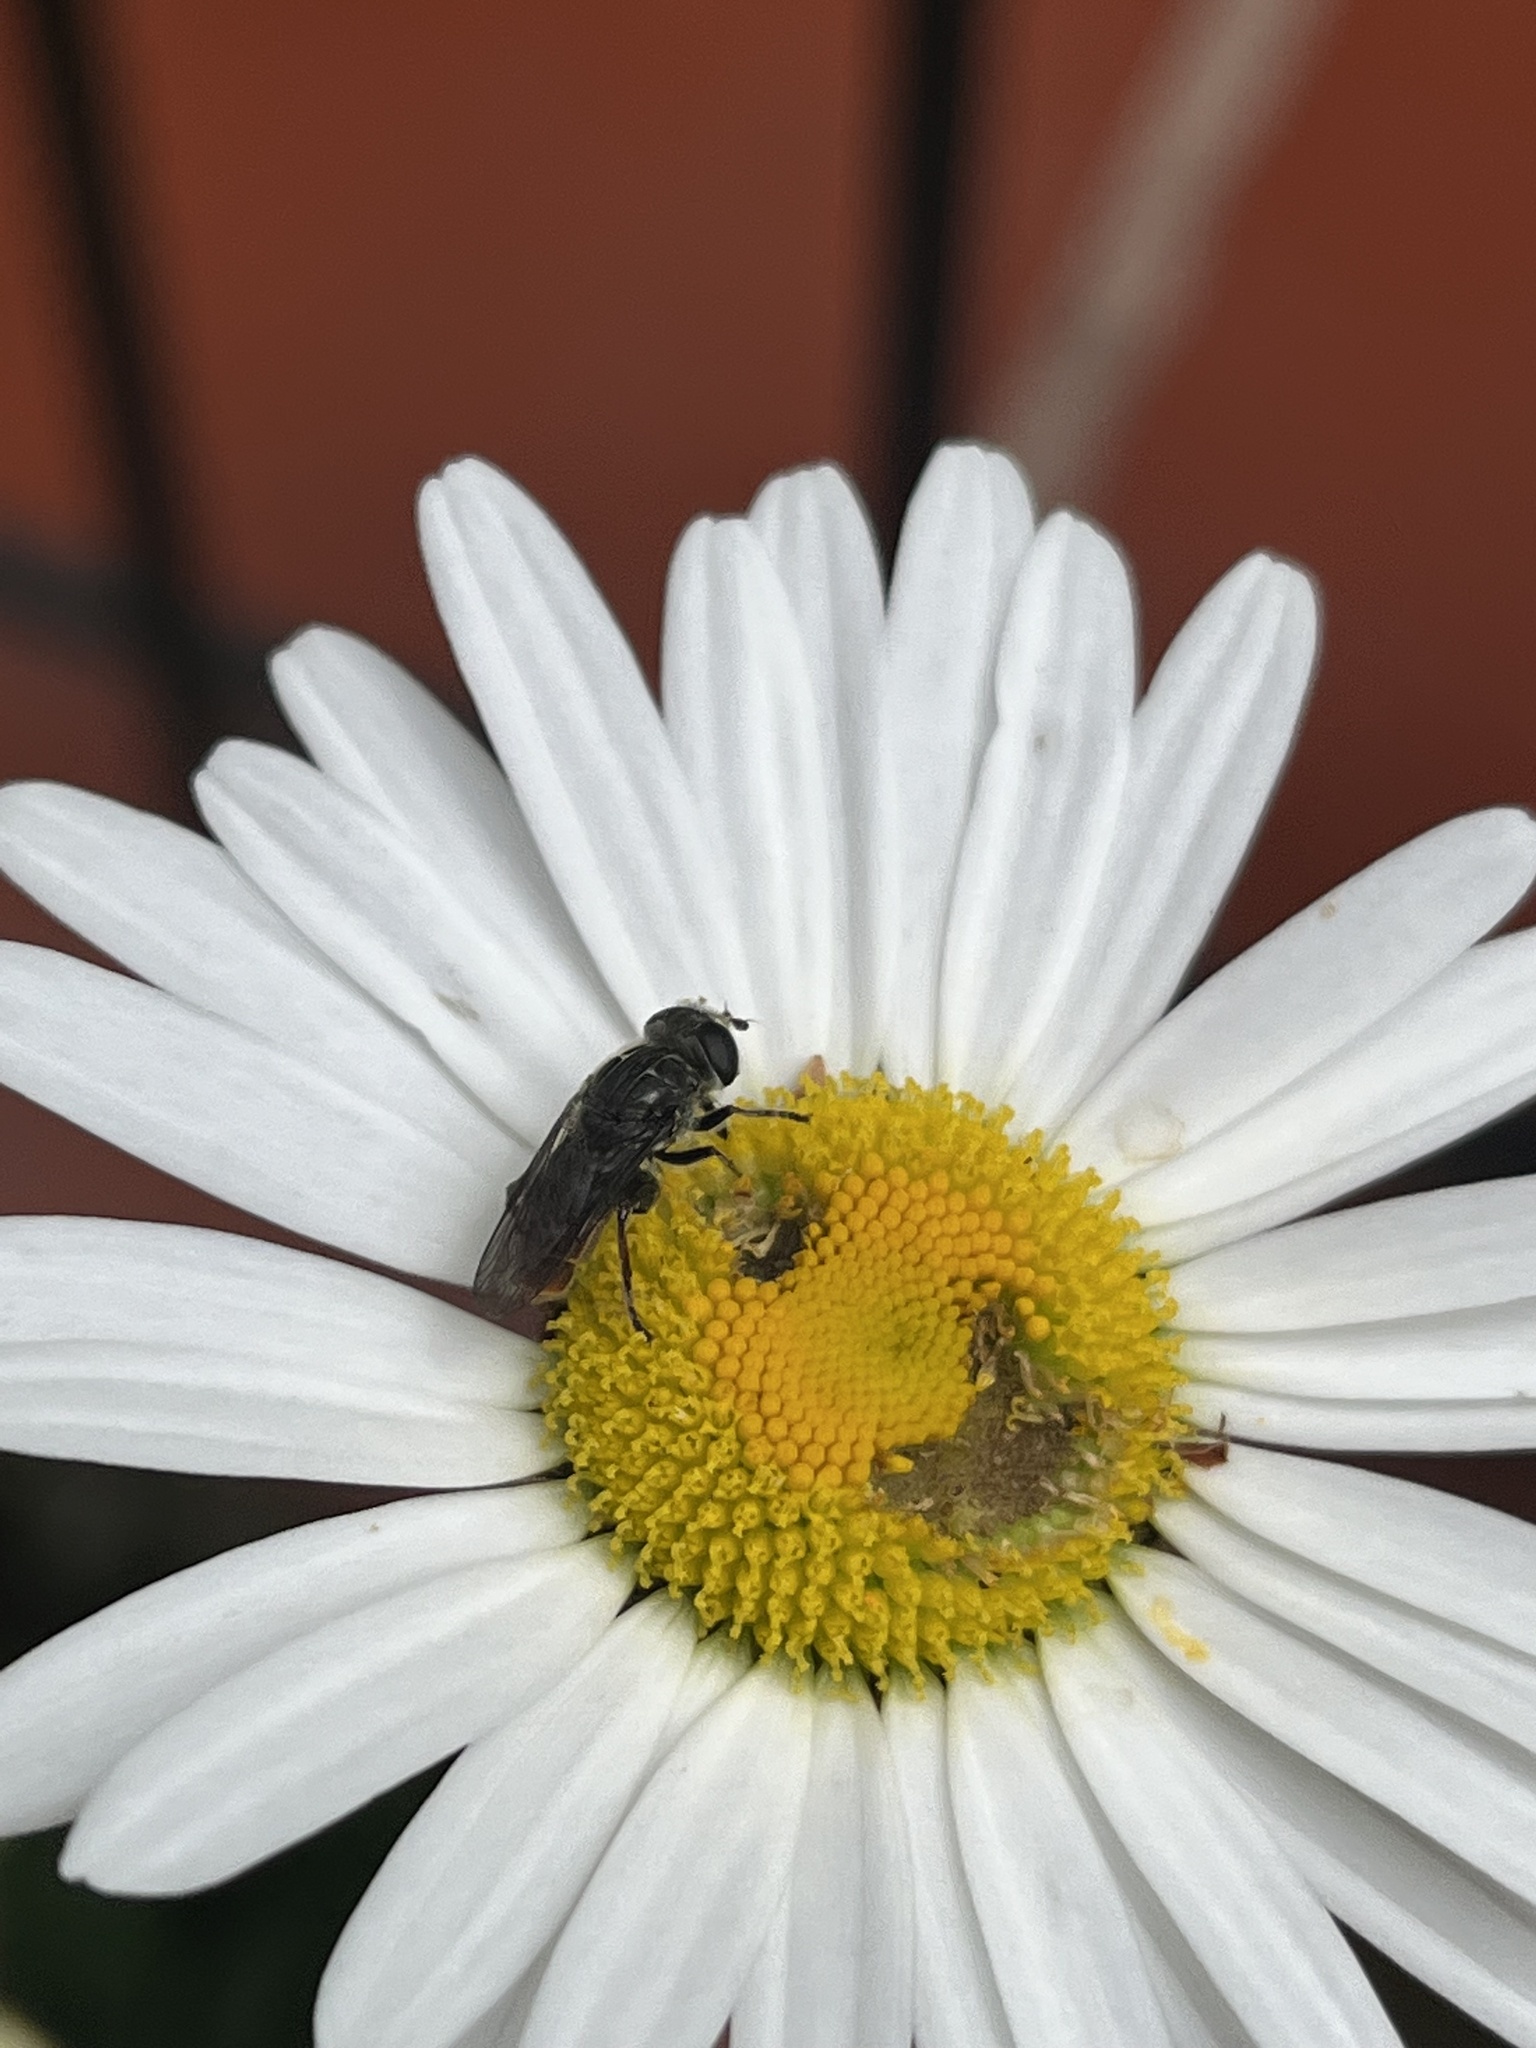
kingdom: Animalia
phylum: Arthropoda
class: Insecta
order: Diptera
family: Syrphidae
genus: Asemosyrphus
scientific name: Asemosyrphus
